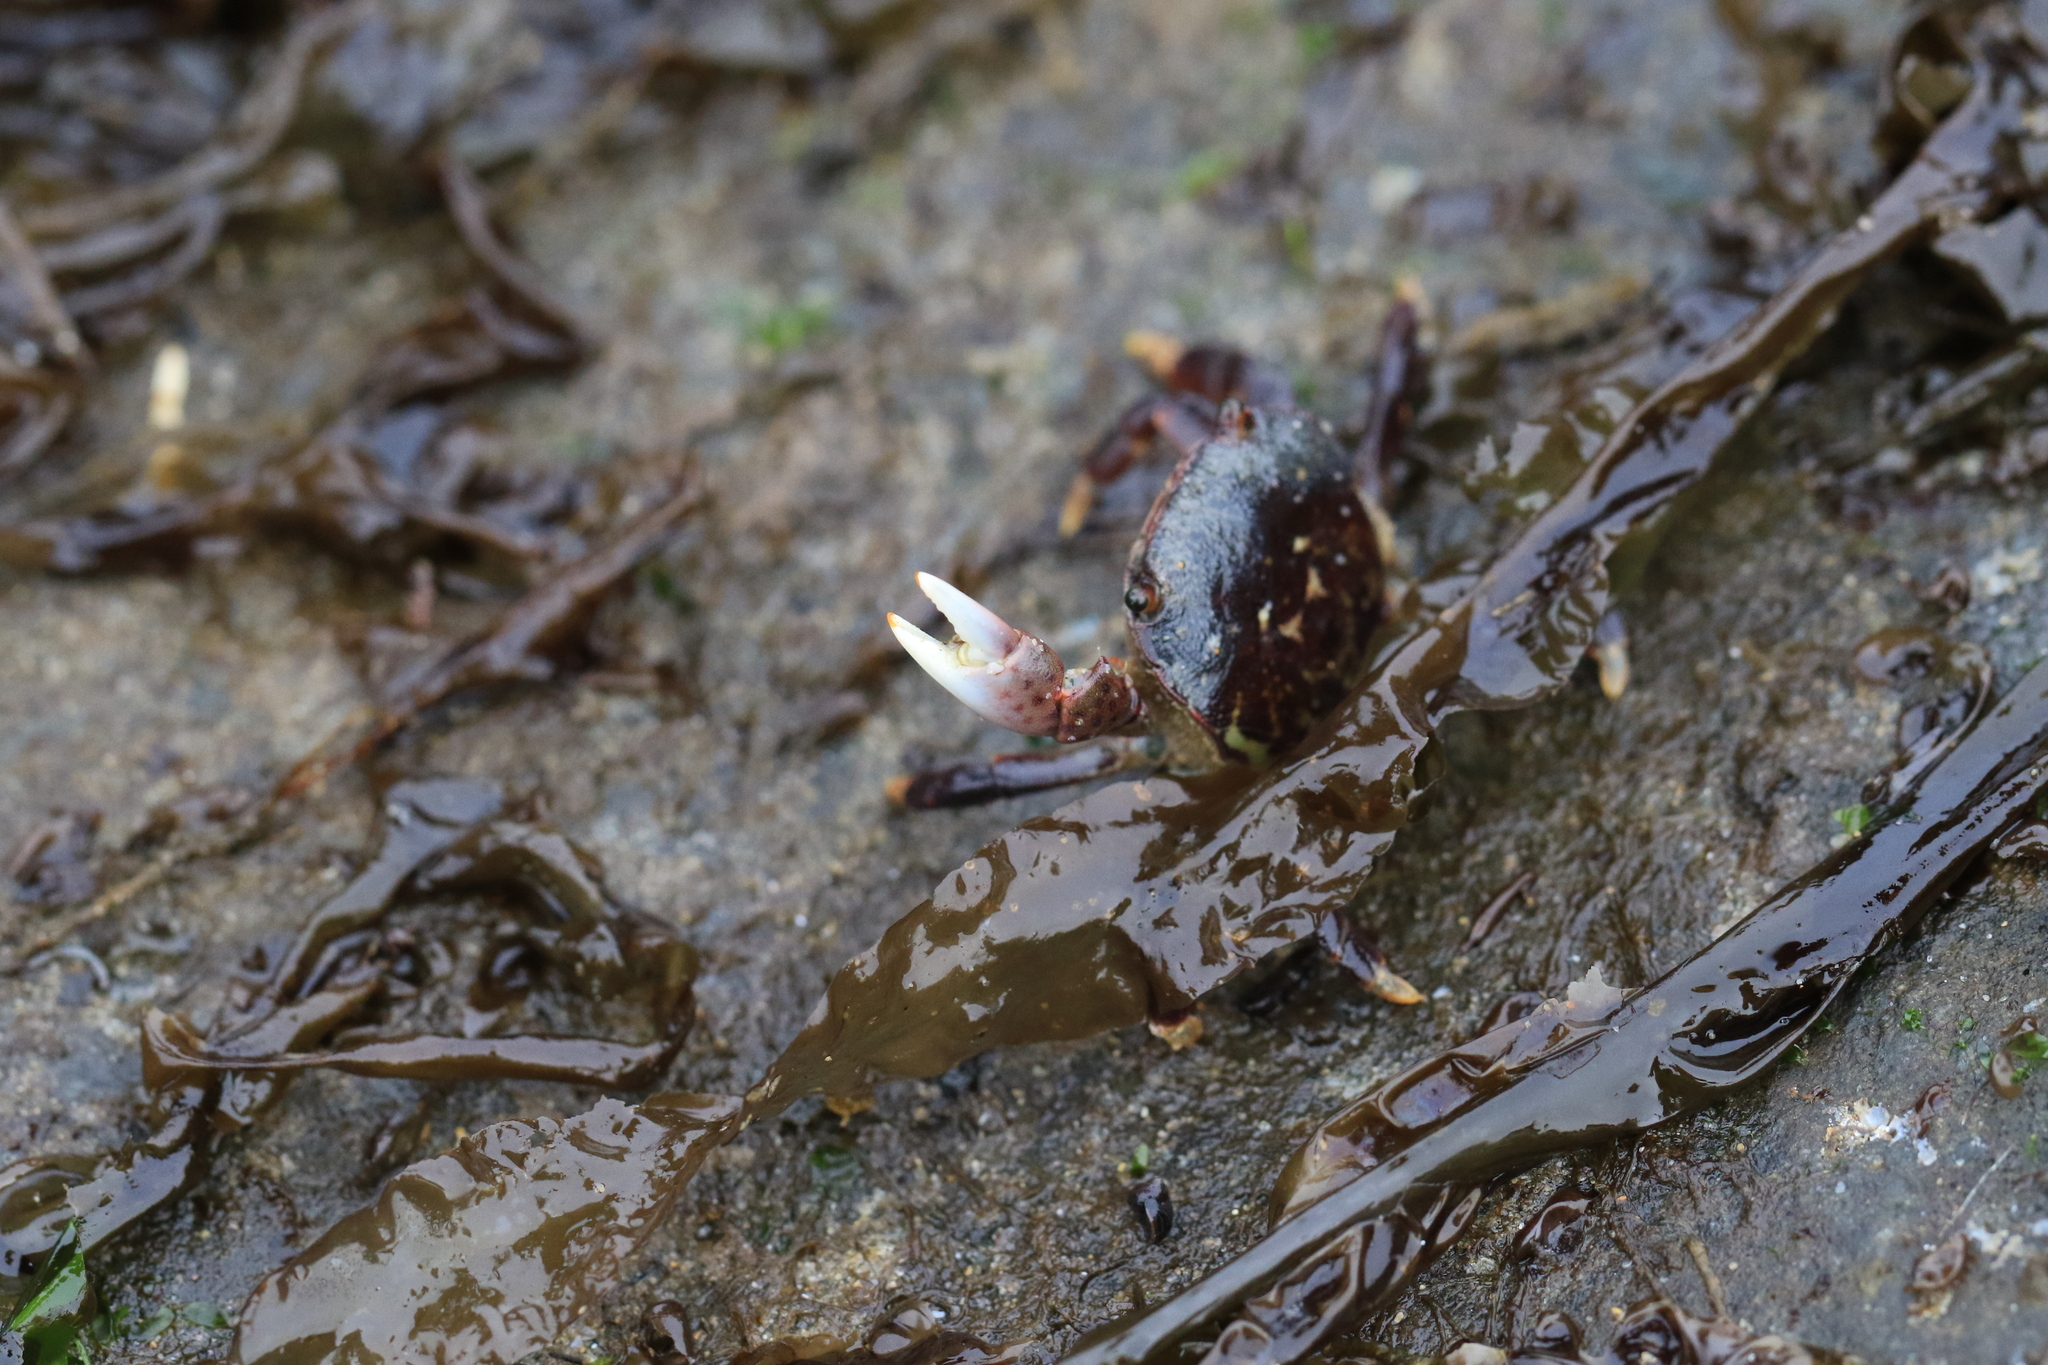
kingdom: Animalia
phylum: Arthropoda
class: Malacostraca
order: Decapoda
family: Varunidae
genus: Hemigrapsus
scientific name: Hemigrapsus nudus
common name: Purple shore crab
